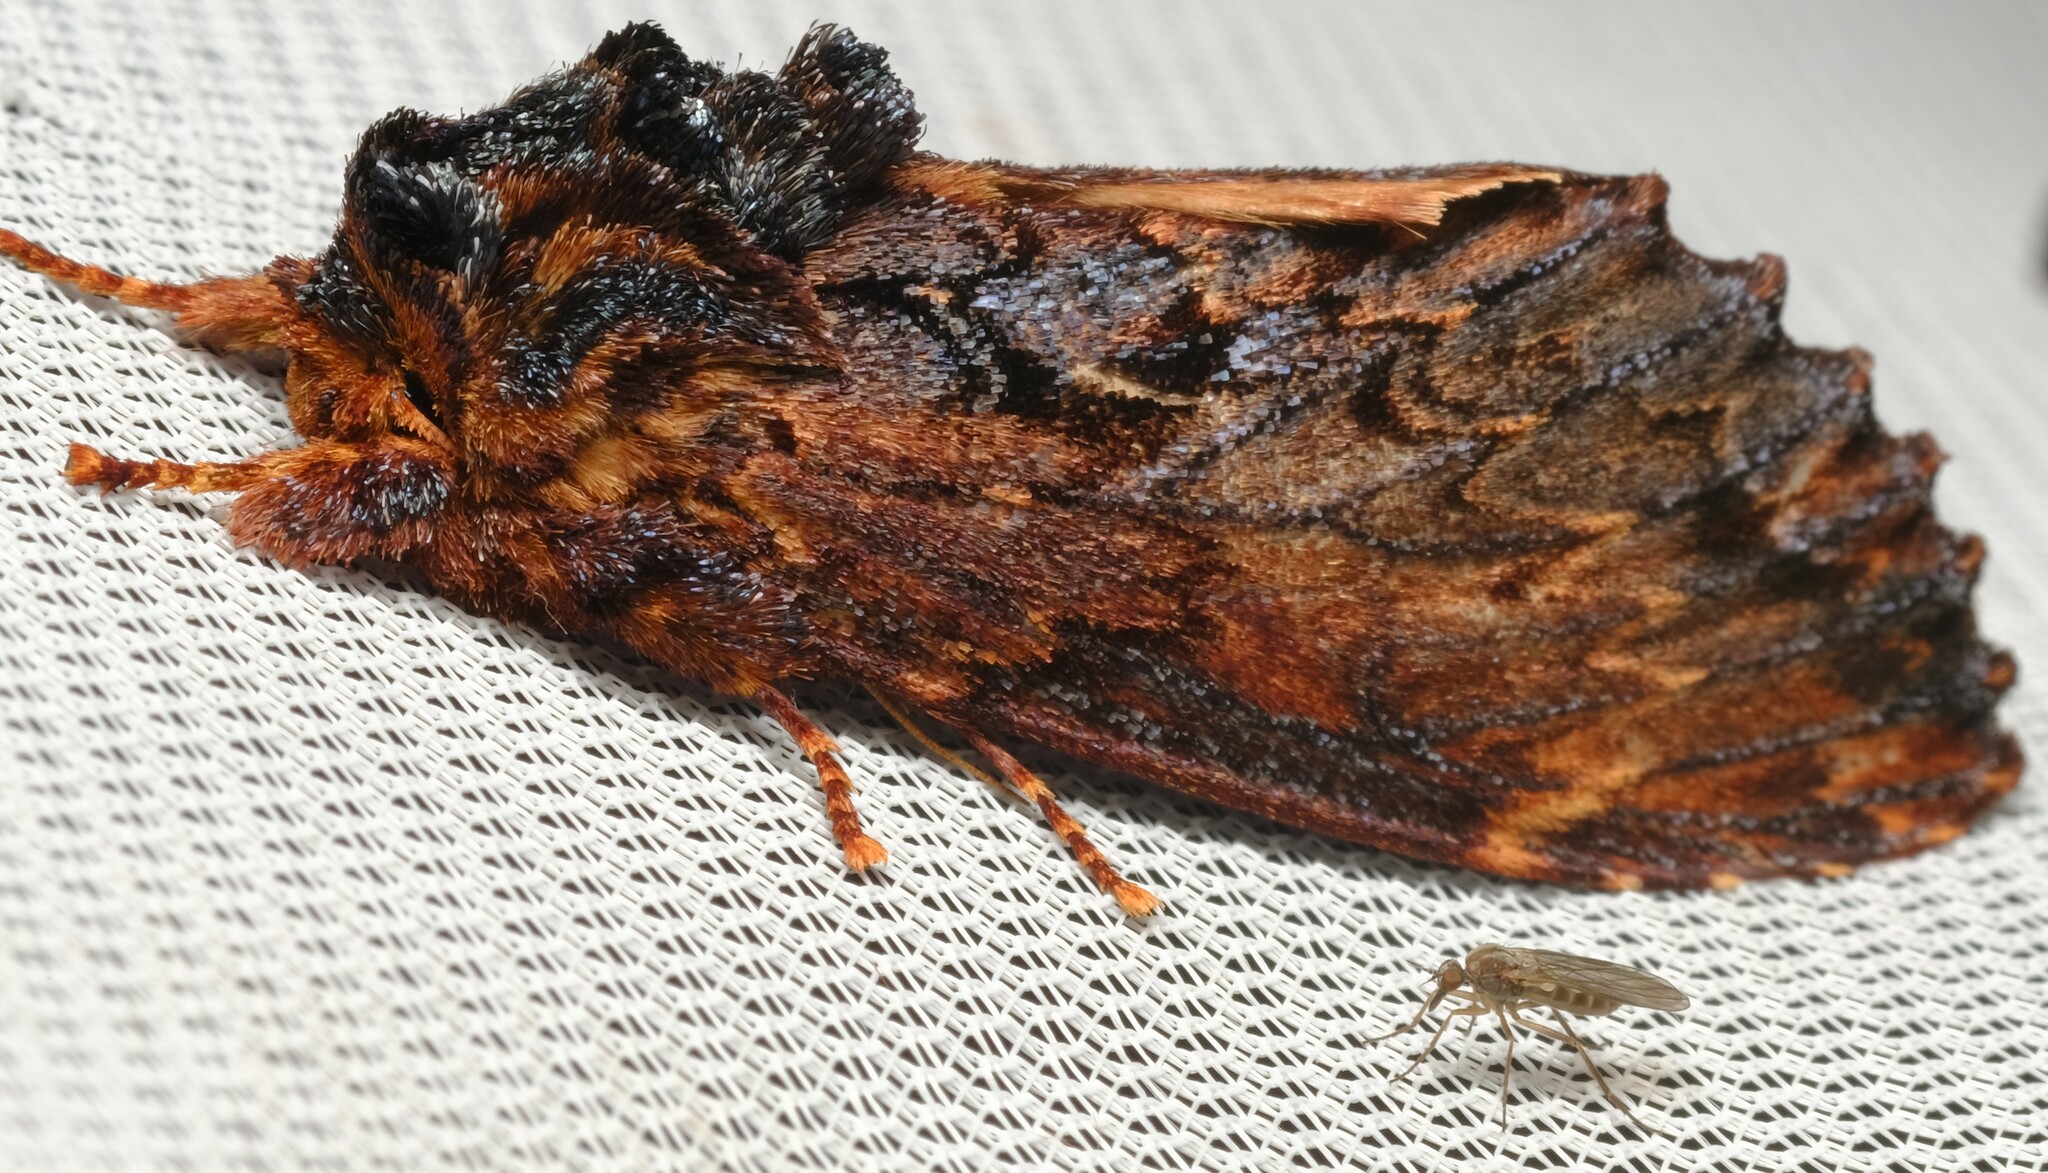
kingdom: Animalia
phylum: Arthropoda
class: Insecta
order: Lepidoptera
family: Notodontidae
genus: Sorama
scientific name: Sorama bicolor
